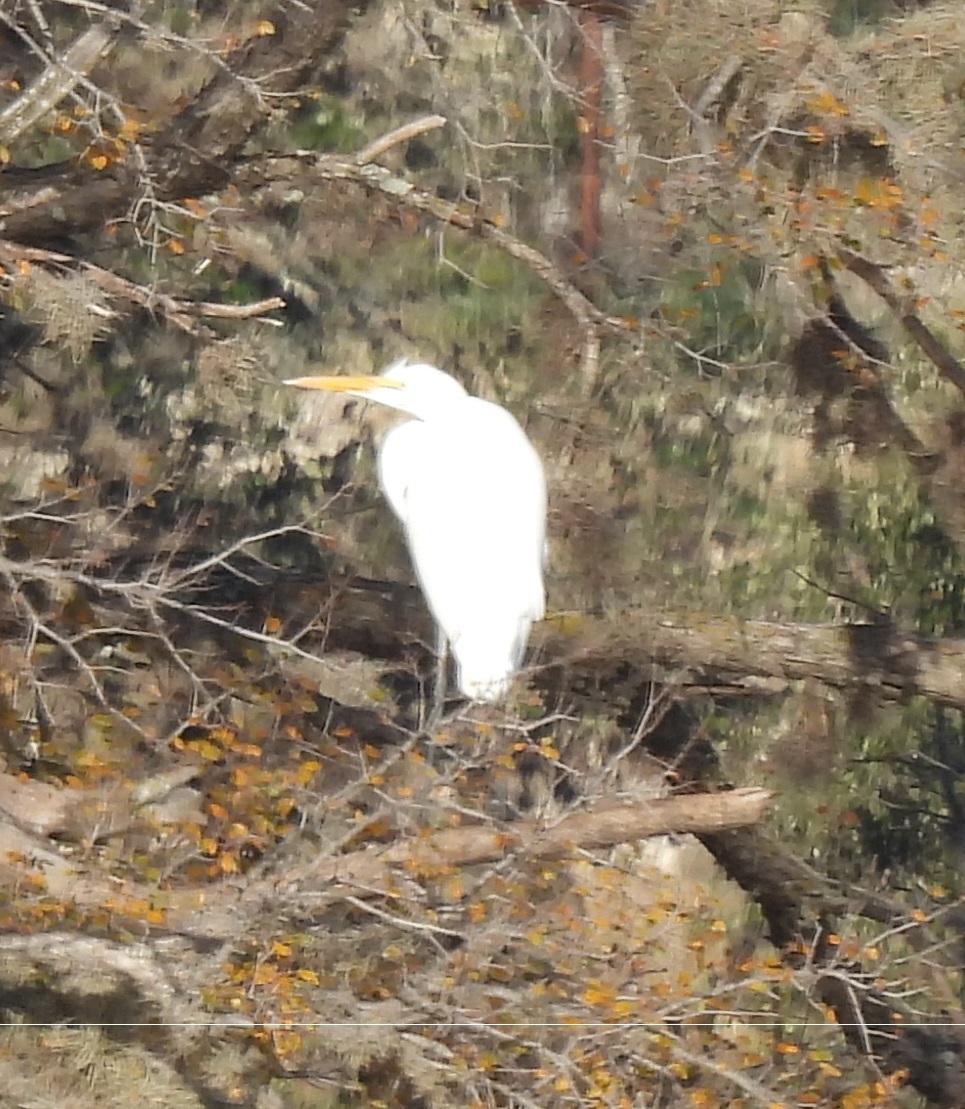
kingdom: Animalia
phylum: Chordata
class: Aves
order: Pelecaniformes
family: Ardeidae
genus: Ardea
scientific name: Ardea alba
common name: Great egret
